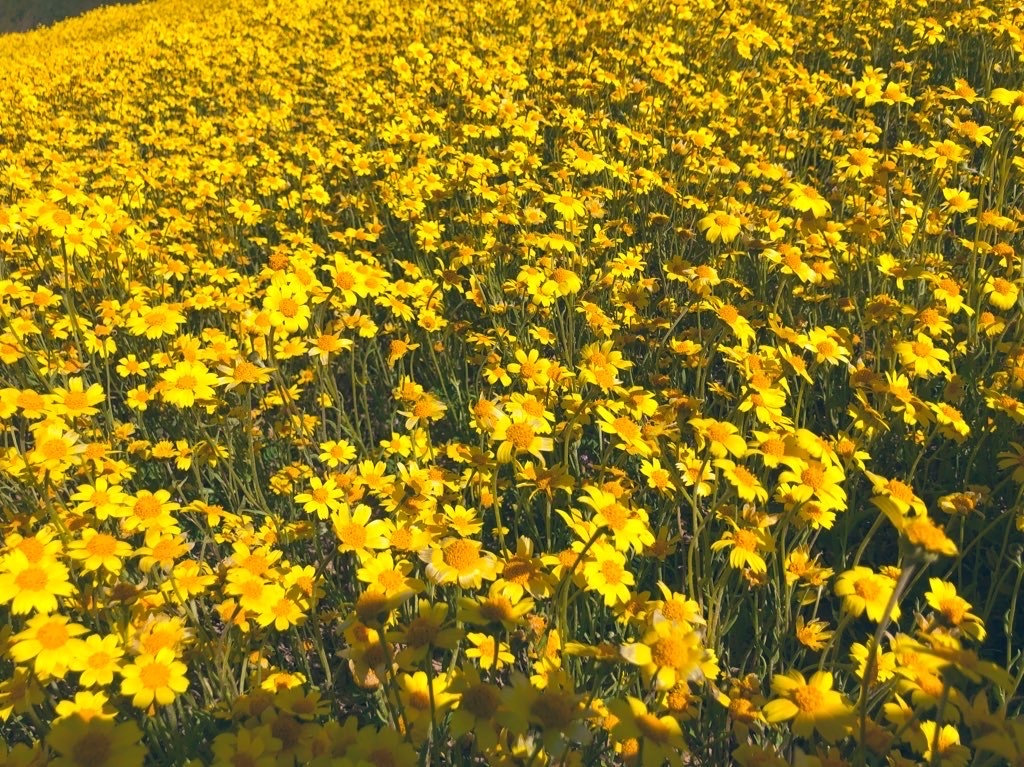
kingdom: Plantae
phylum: Tracheophyta
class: Magnoliopsida
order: Asterales
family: Asteraceae
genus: Monolopia
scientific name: Monolopia lanceolata
